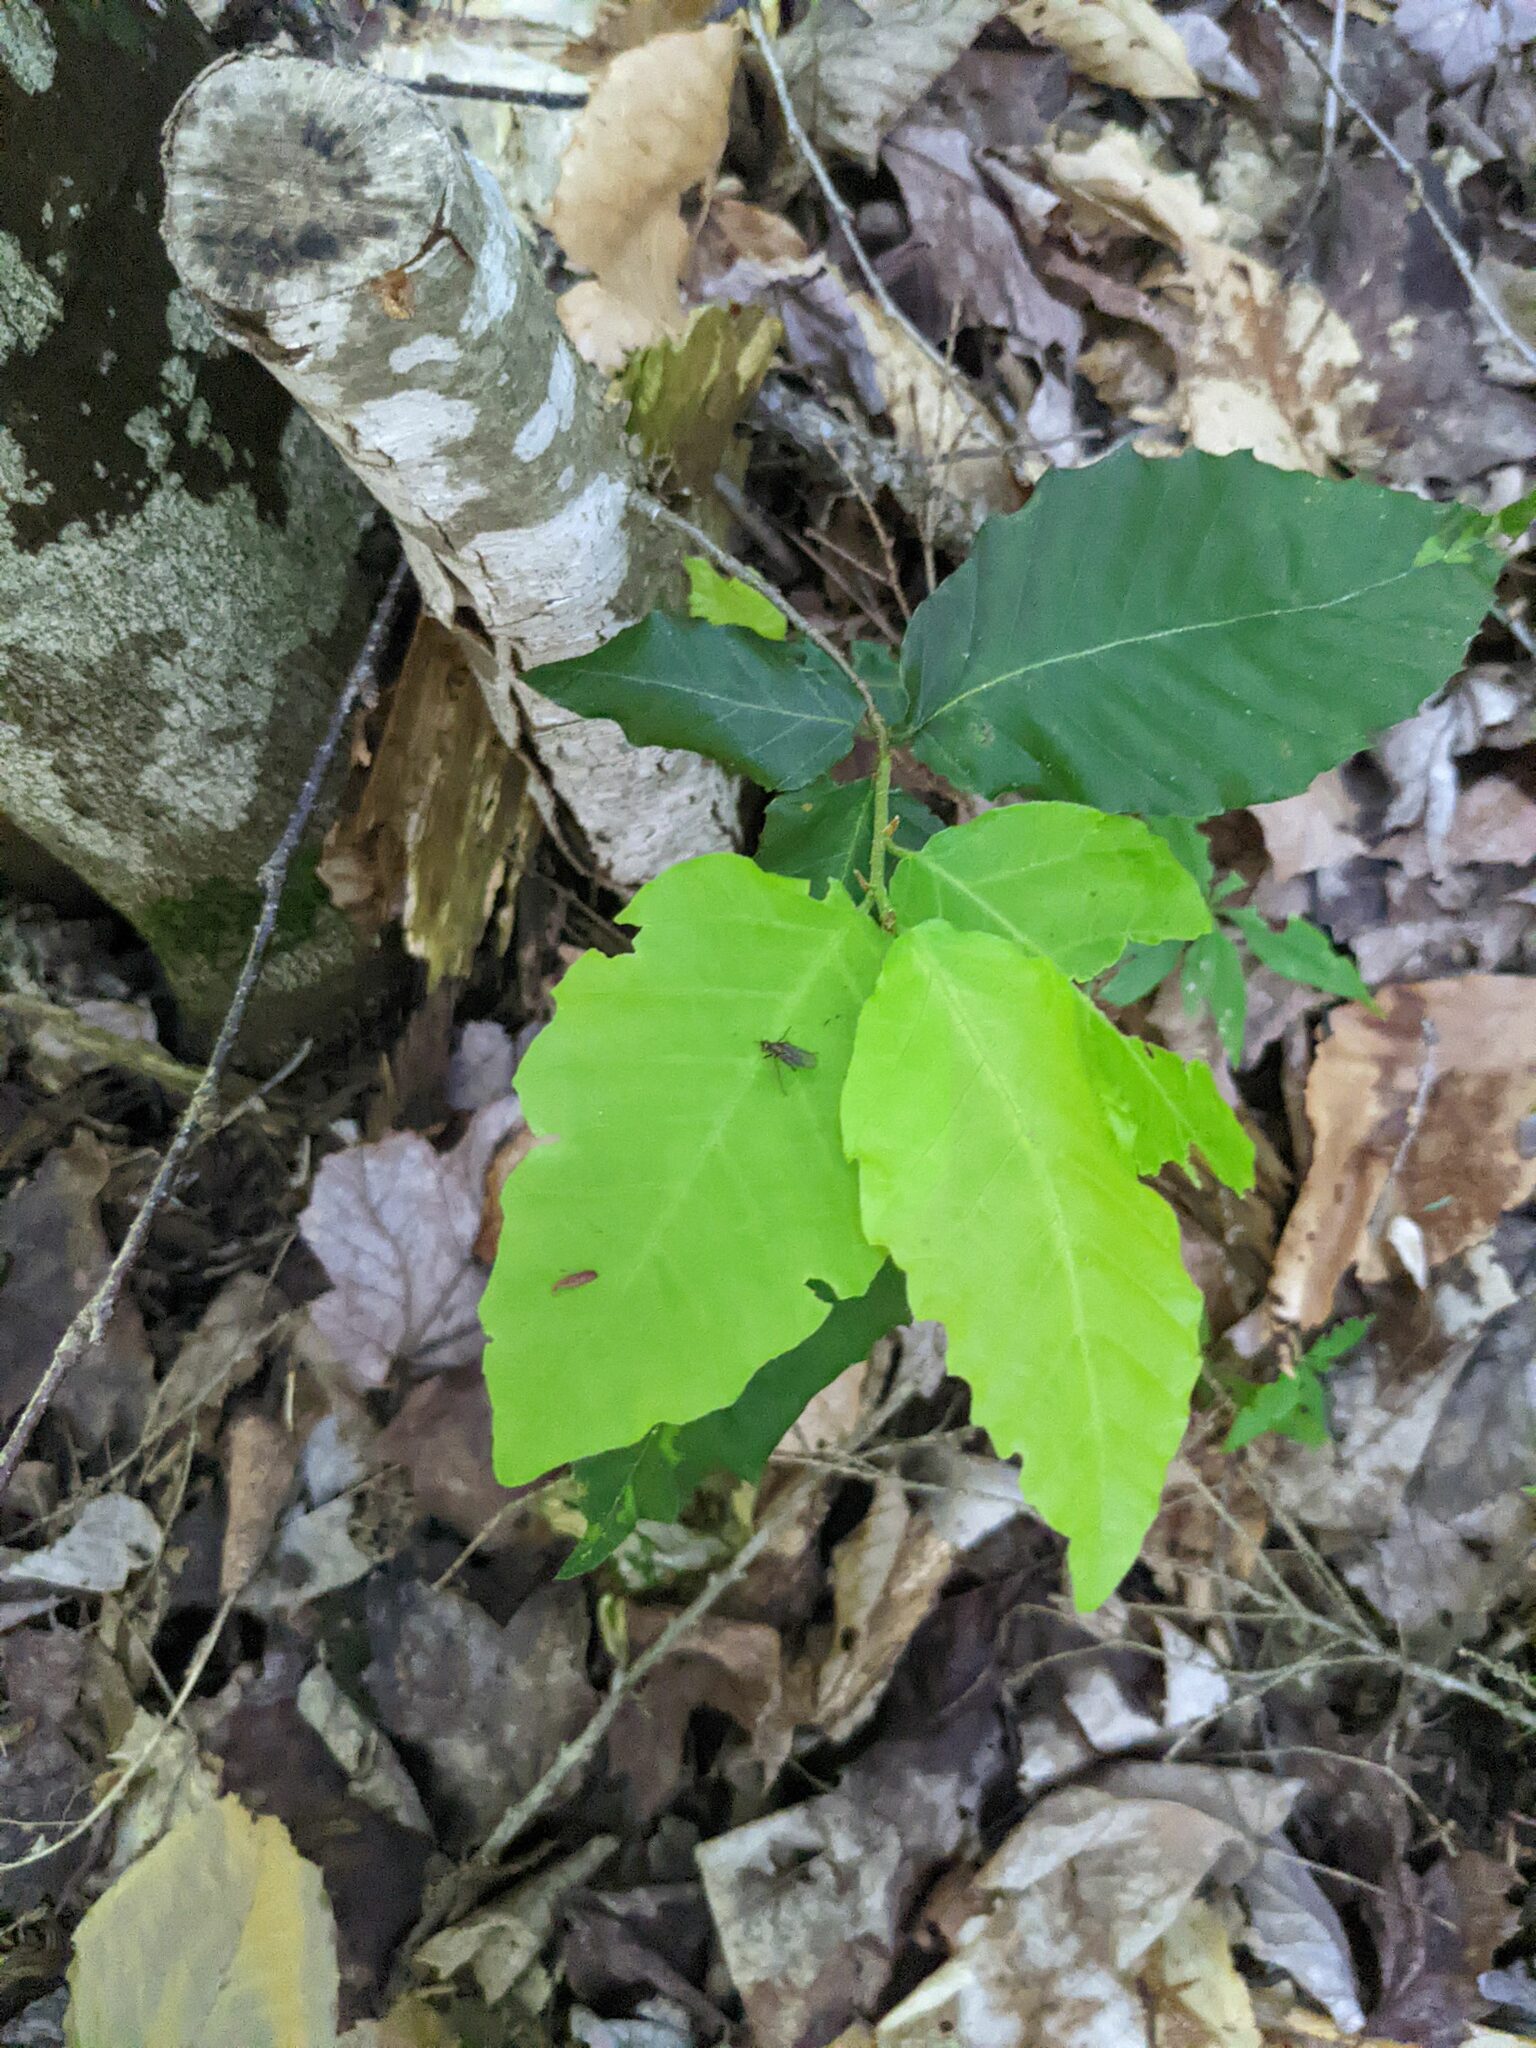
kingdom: Plantae
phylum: Tracheophyta
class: Magnoliopsida
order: Fagales
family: Fagaceae
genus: Fagus
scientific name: Fagus grandifolia
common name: American beech
